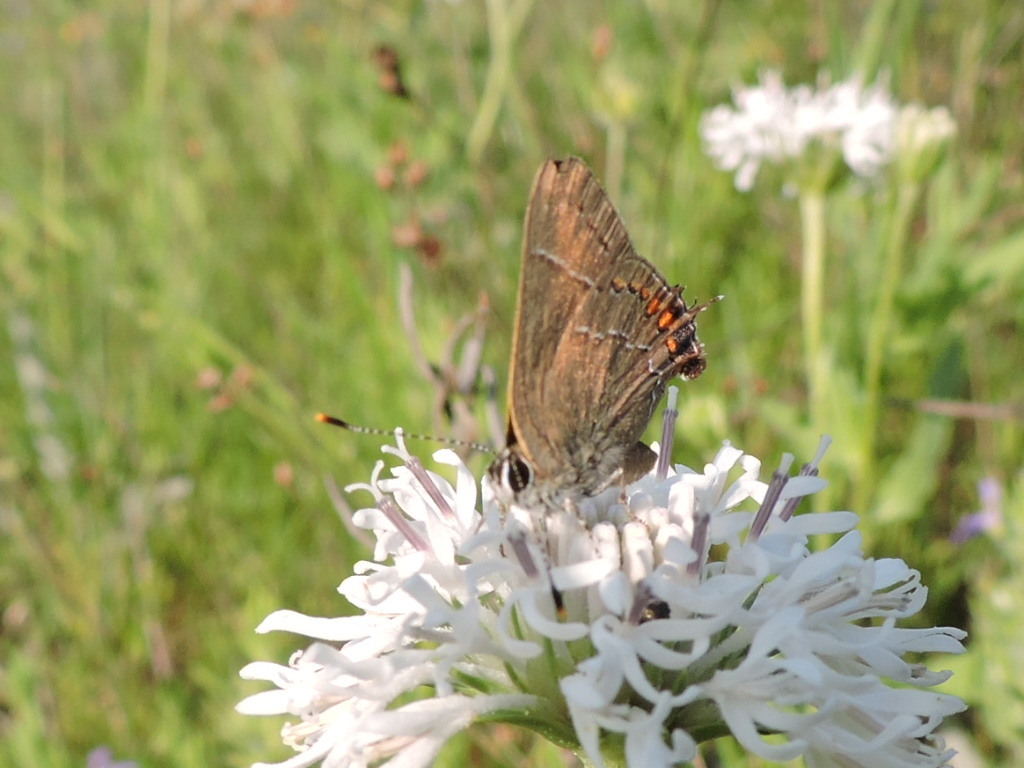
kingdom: Animalia
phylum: Arthropoda
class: Insecta
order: Lepidoptera
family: Lycaenidae
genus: Fixsenia
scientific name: Fixsenia favonius
